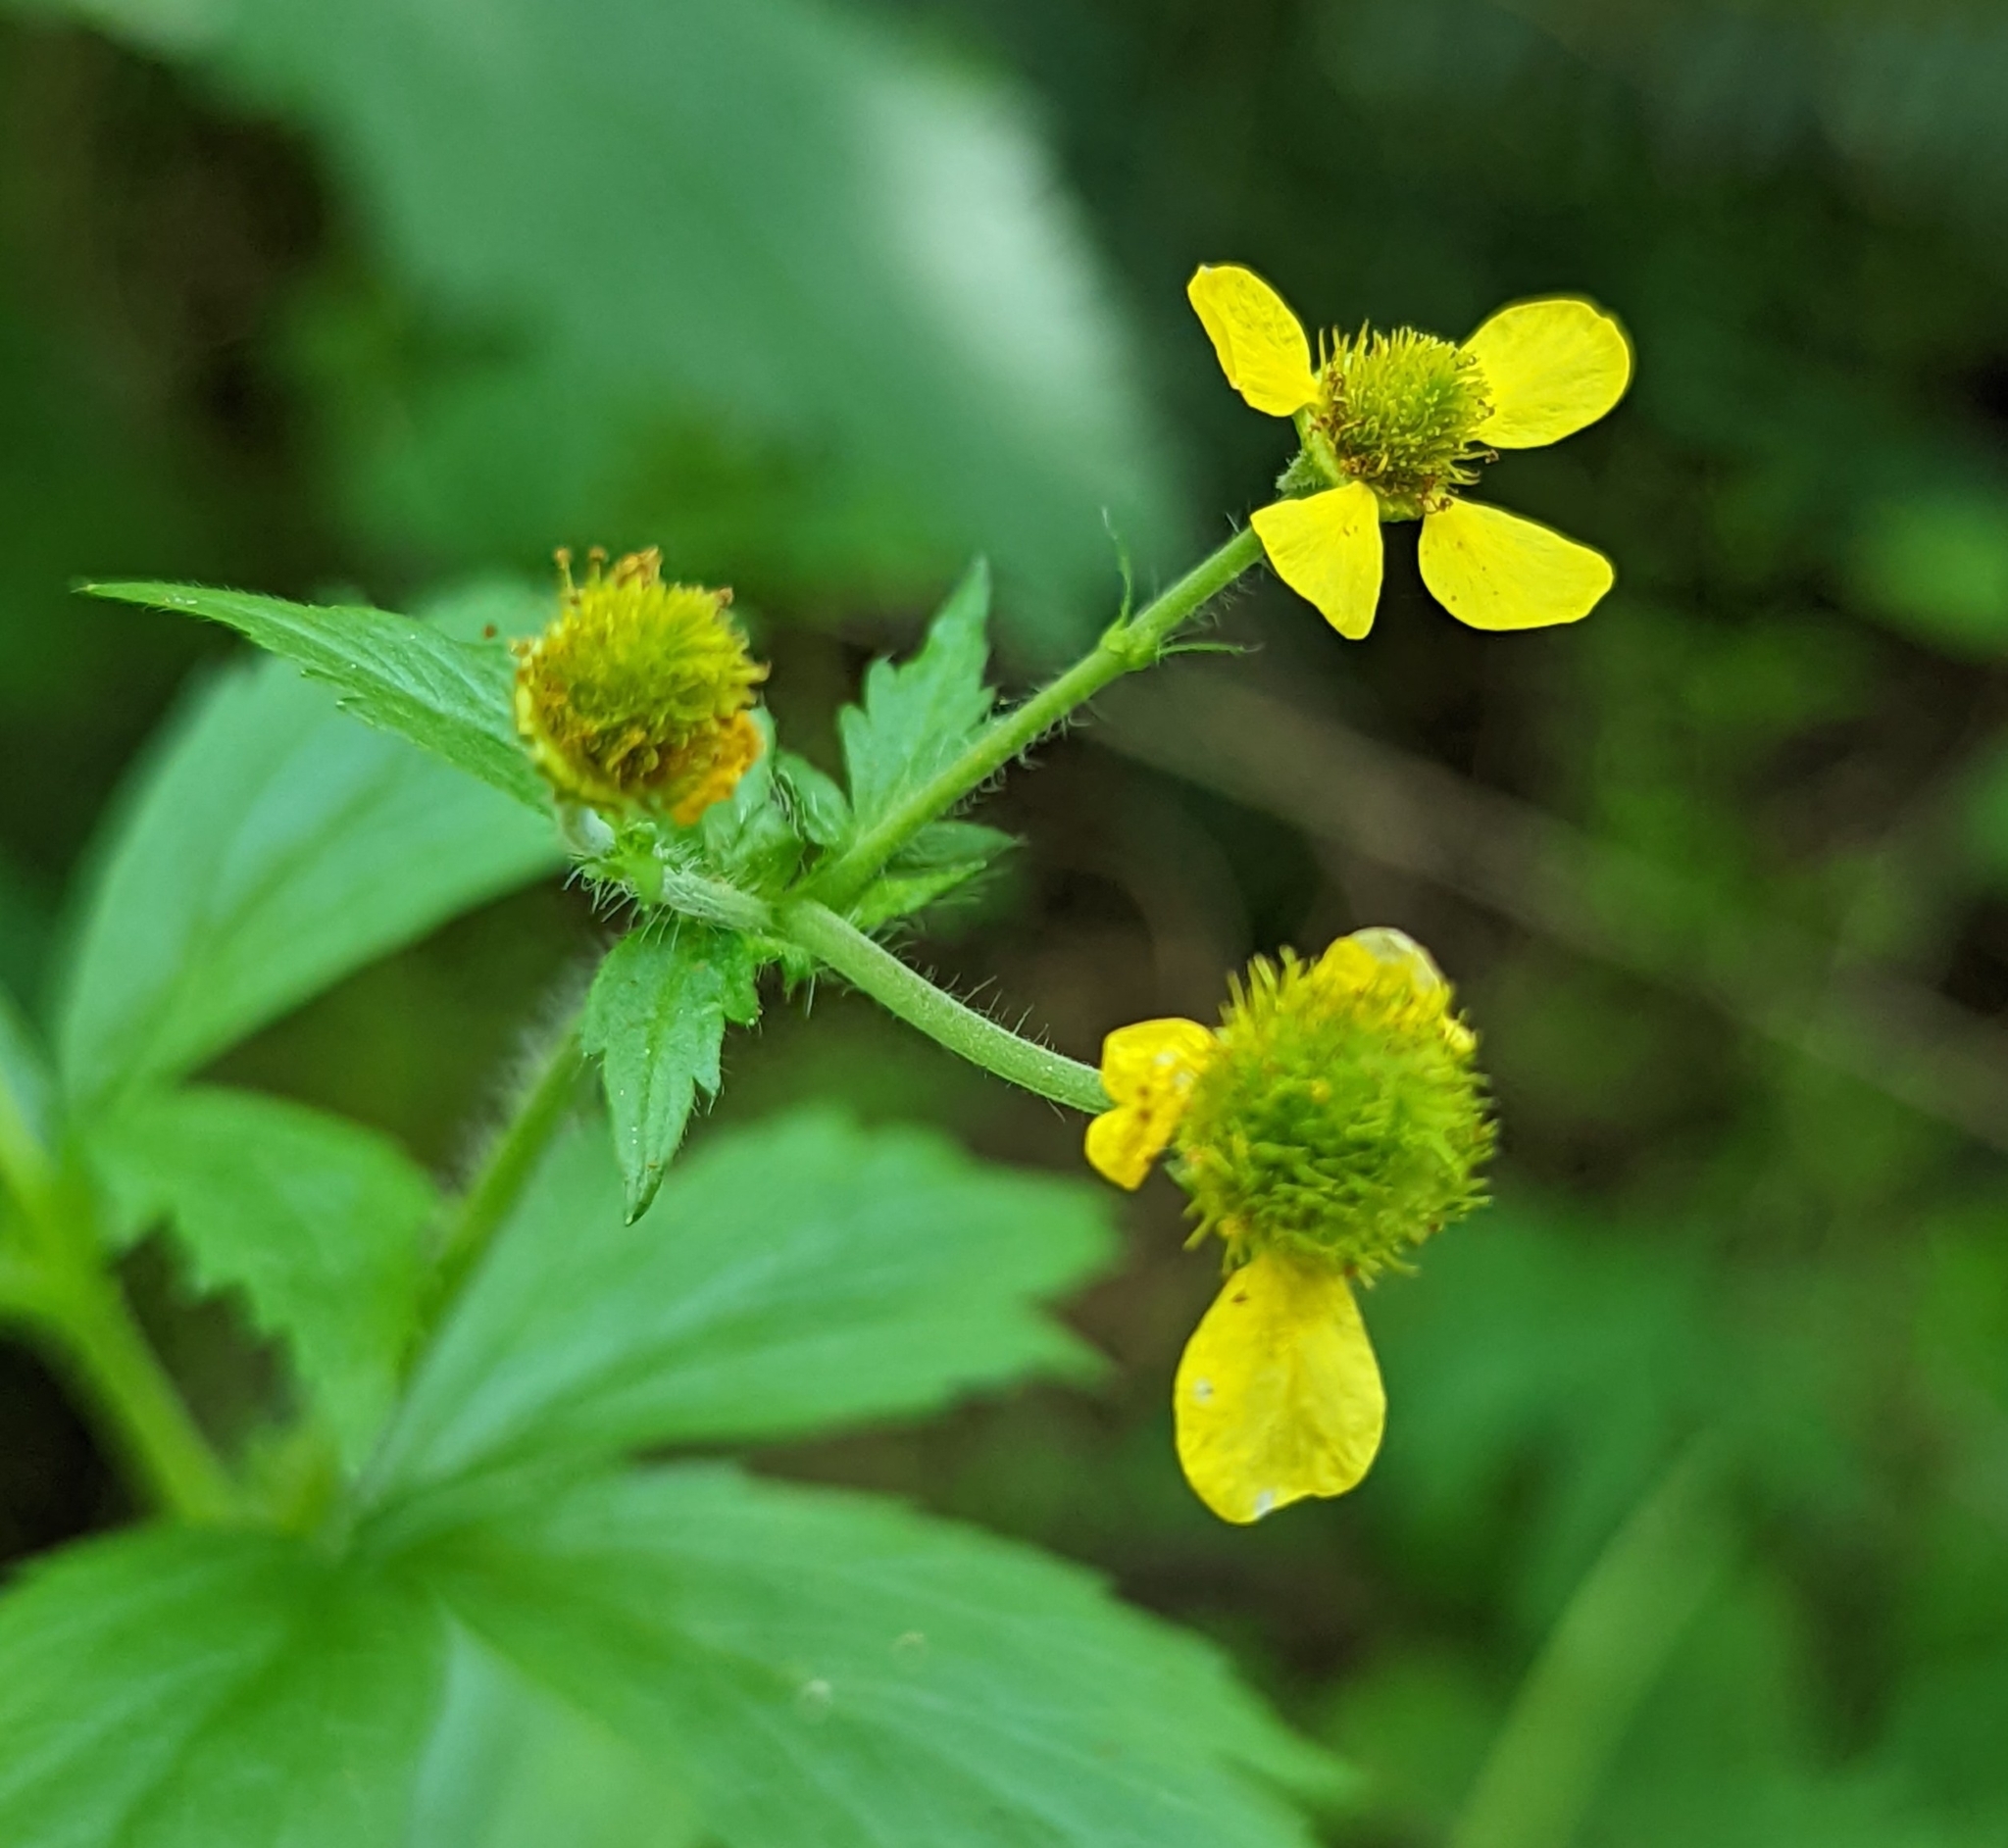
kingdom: Plantae
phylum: Tracheophyta
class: Magnoliopsida
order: Rosales
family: Rosaceae
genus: Geum
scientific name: Geum macrophyllum
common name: Large-leaved avens
